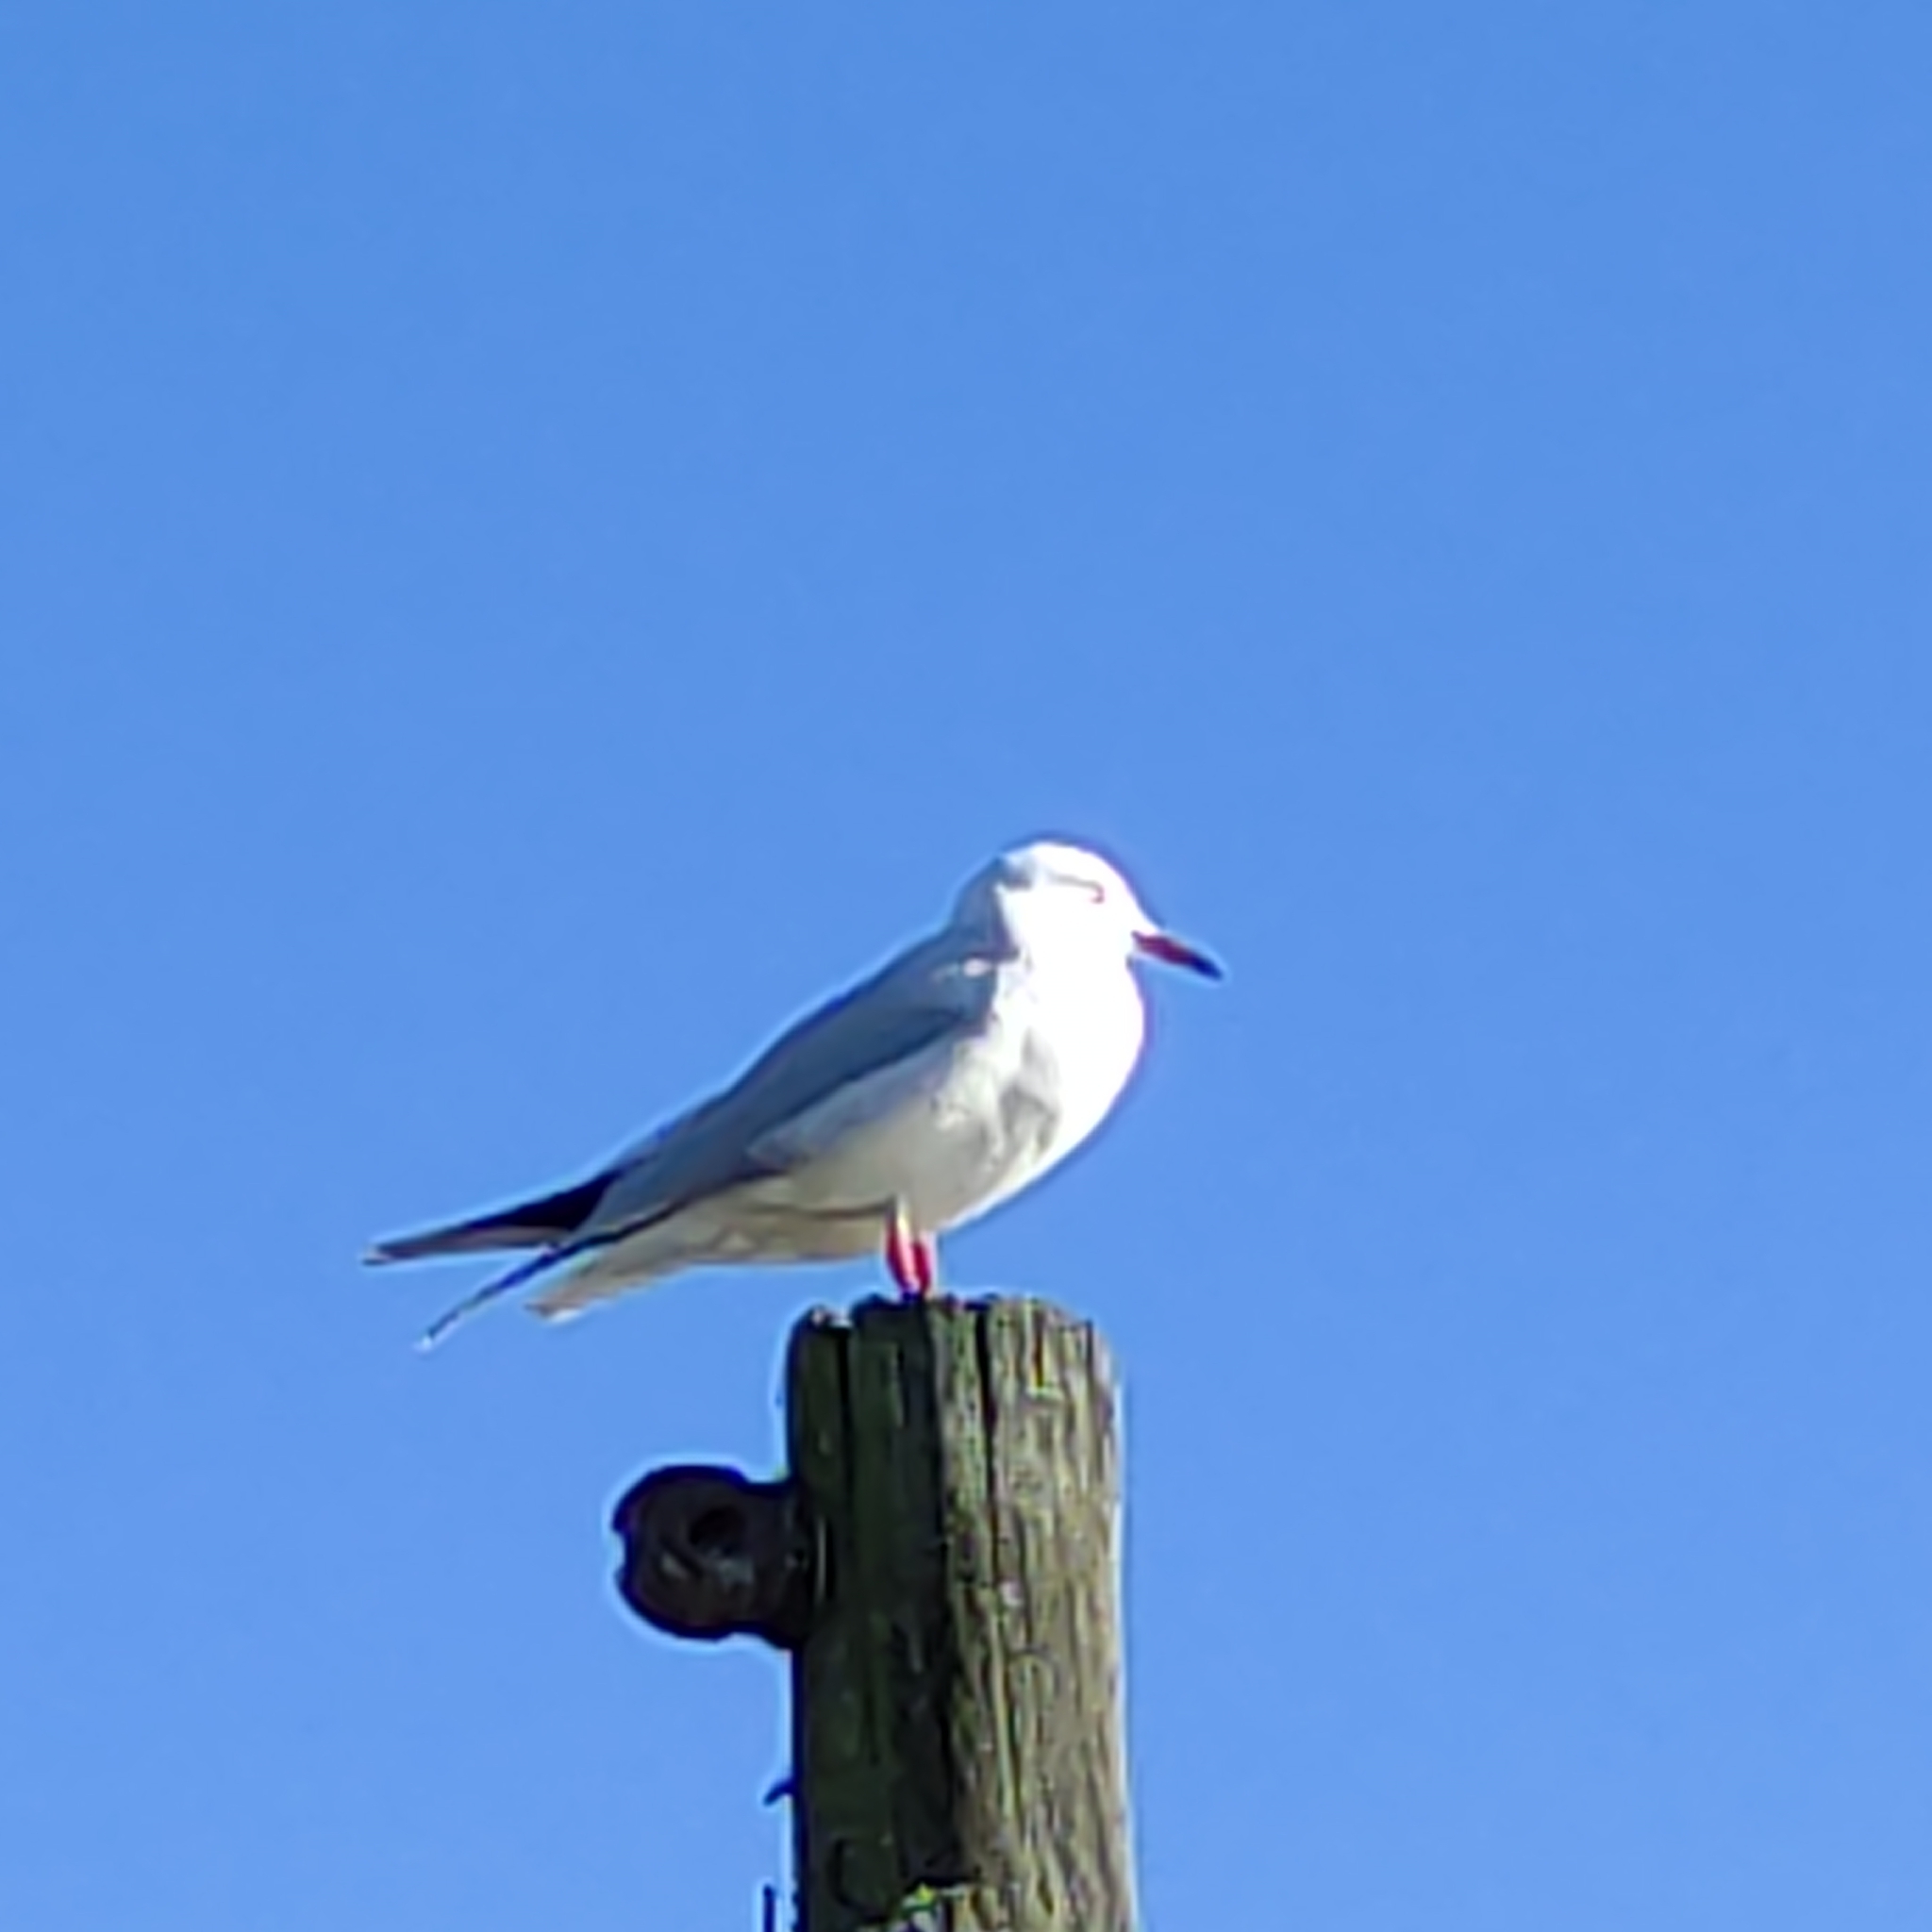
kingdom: Animalia
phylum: Chordata
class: Aves
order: Charadriiformes
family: Laridae
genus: Chroicocephalus
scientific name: Chroicocephalus bulleri
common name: Black-billed gull
